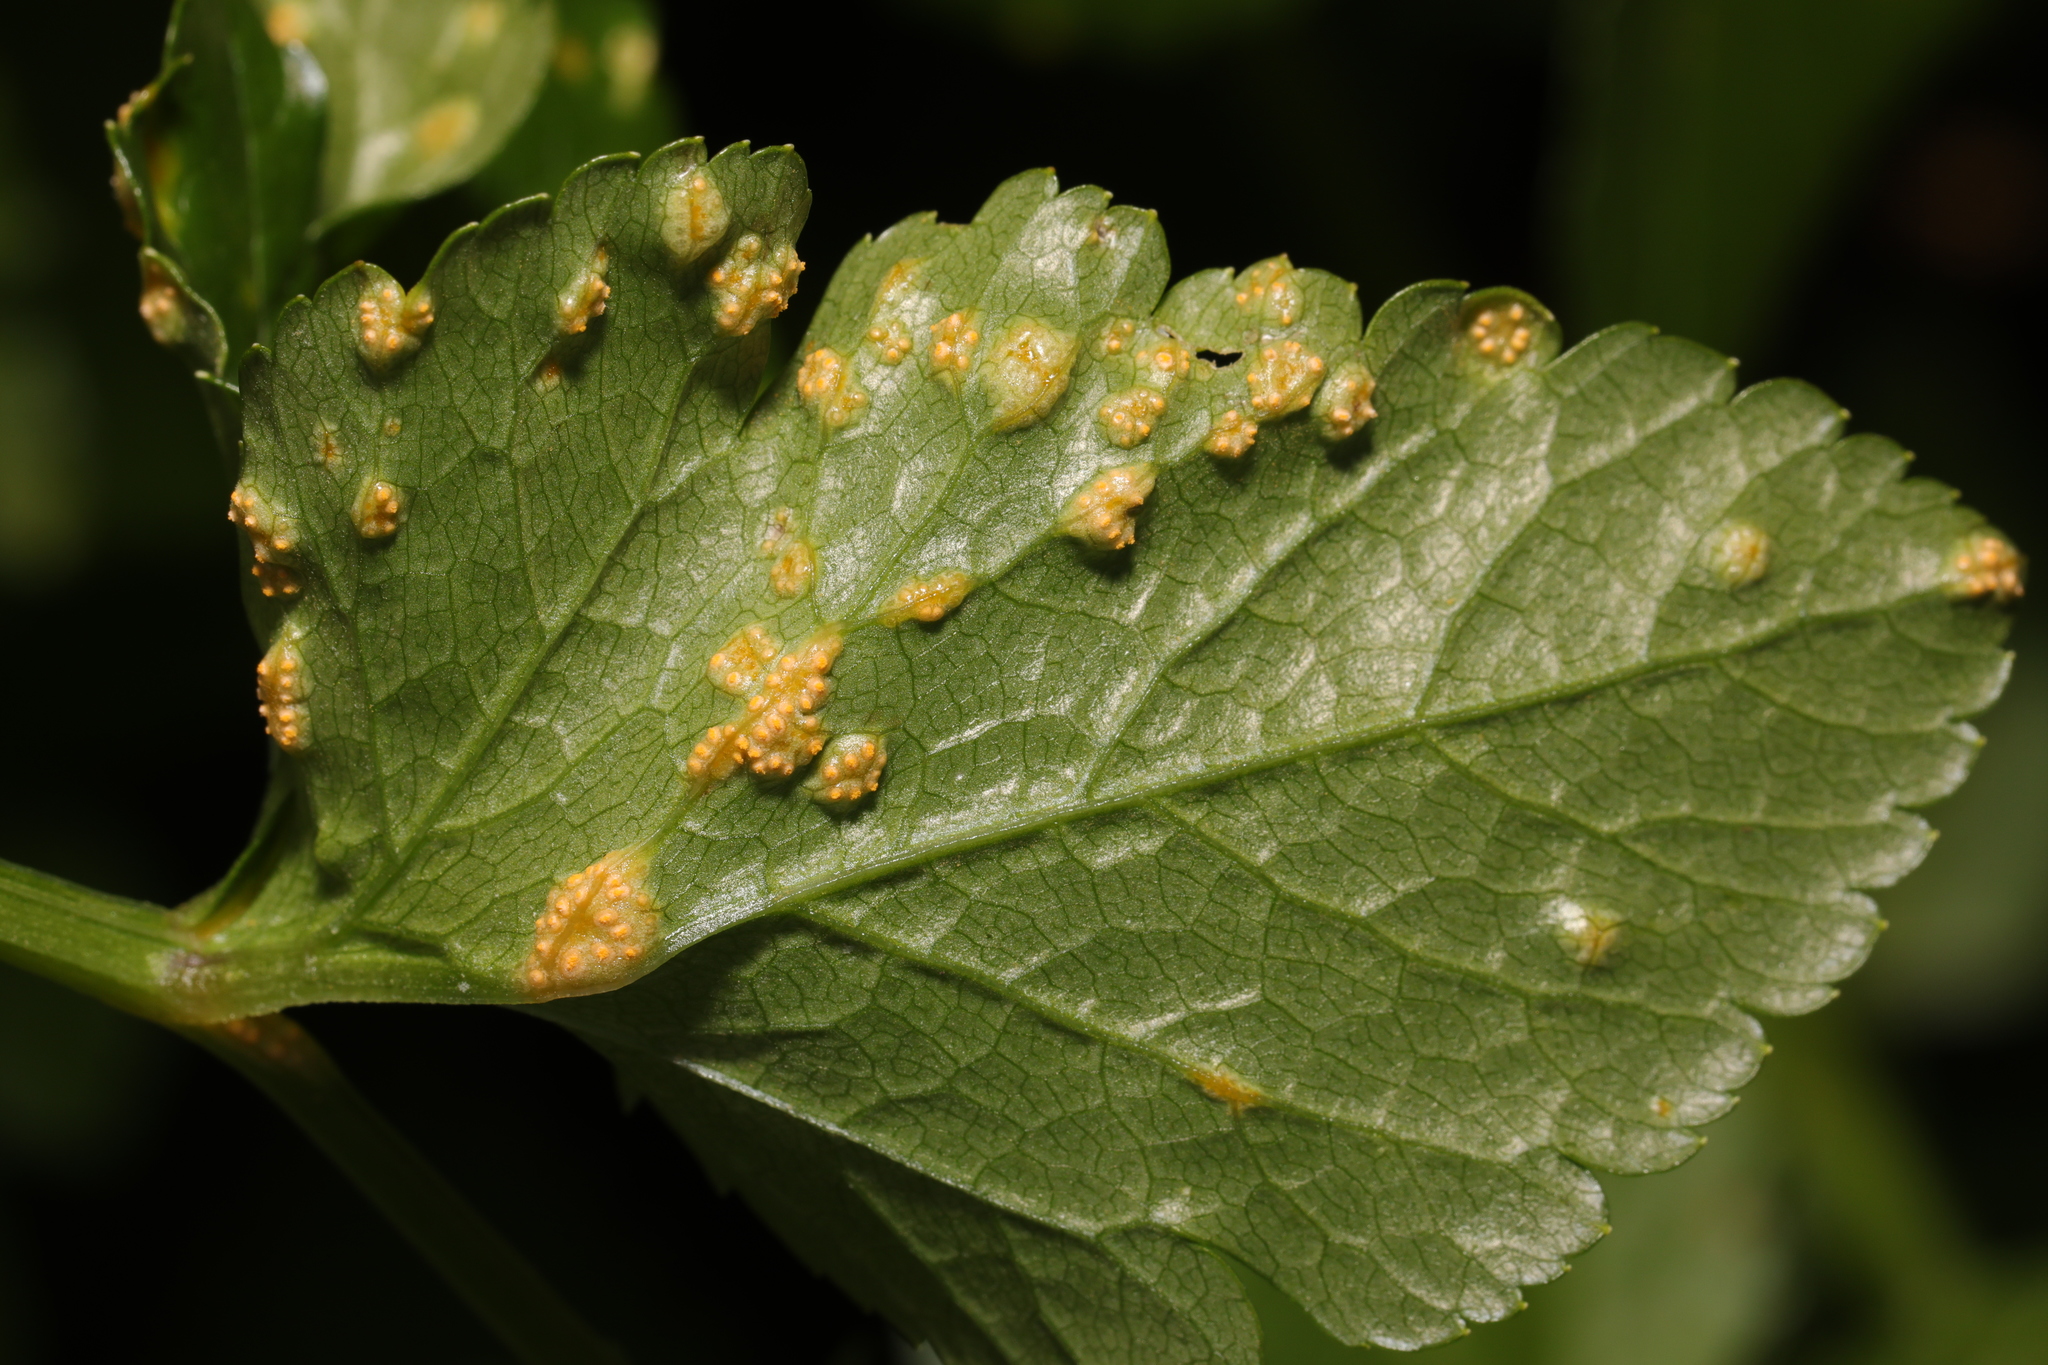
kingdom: Fungi
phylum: Basidiomycota
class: Pucciniomycetes
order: Pucciniales
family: Pucciniaceae
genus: Puccinia
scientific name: Puccinia smyrnii
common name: Alexanders rust
